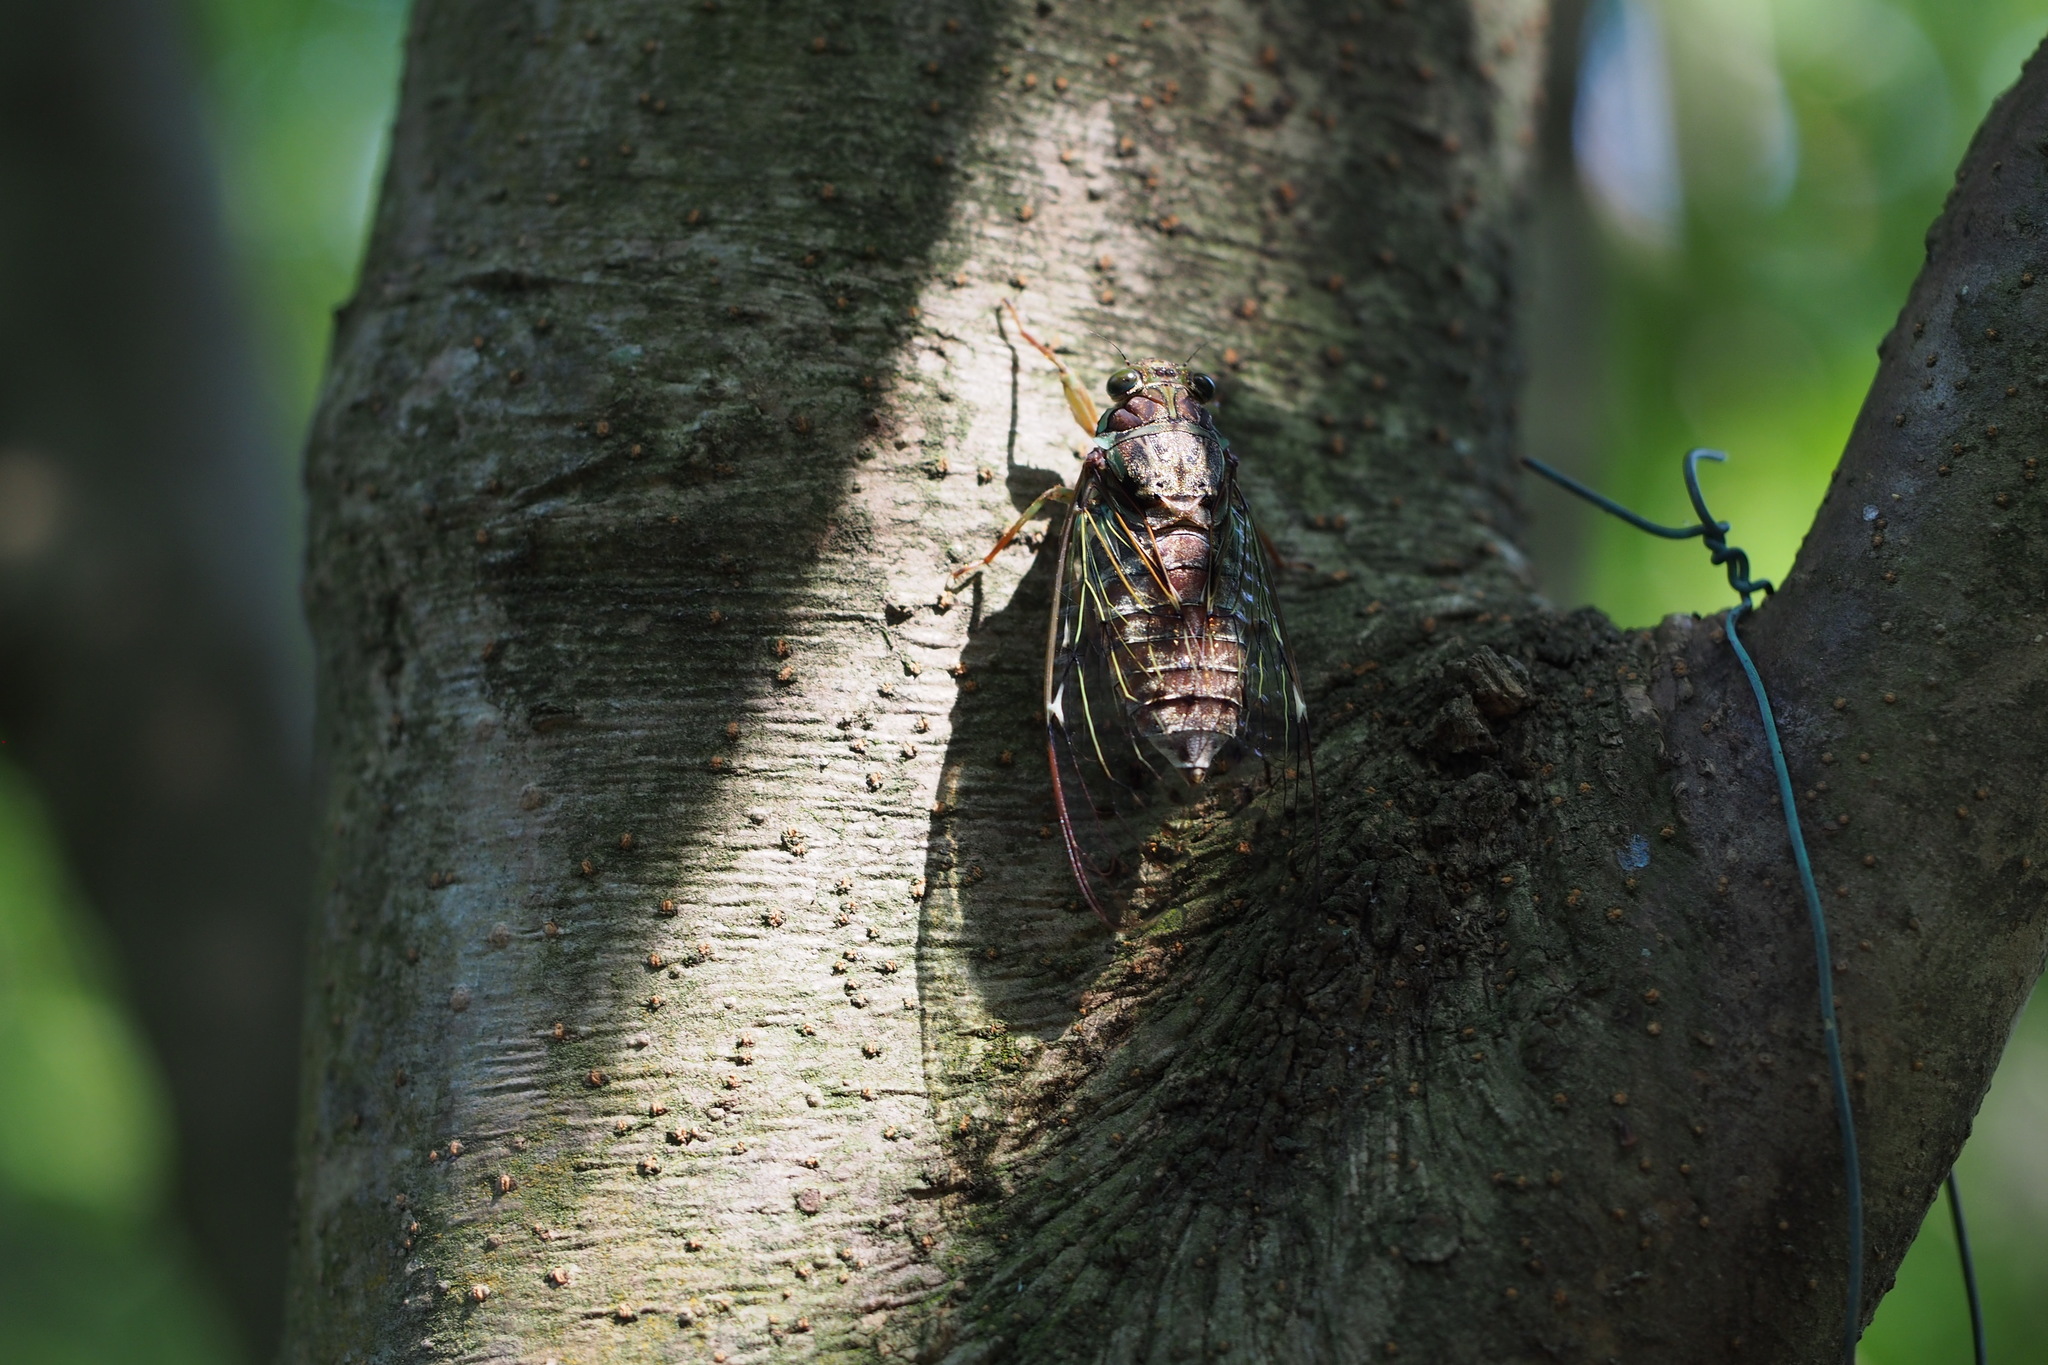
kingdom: Animalia
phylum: Arthropoda
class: Insecta
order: Hemiptera
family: Cicadidae
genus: Tanna
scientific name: Tanna japonensis
